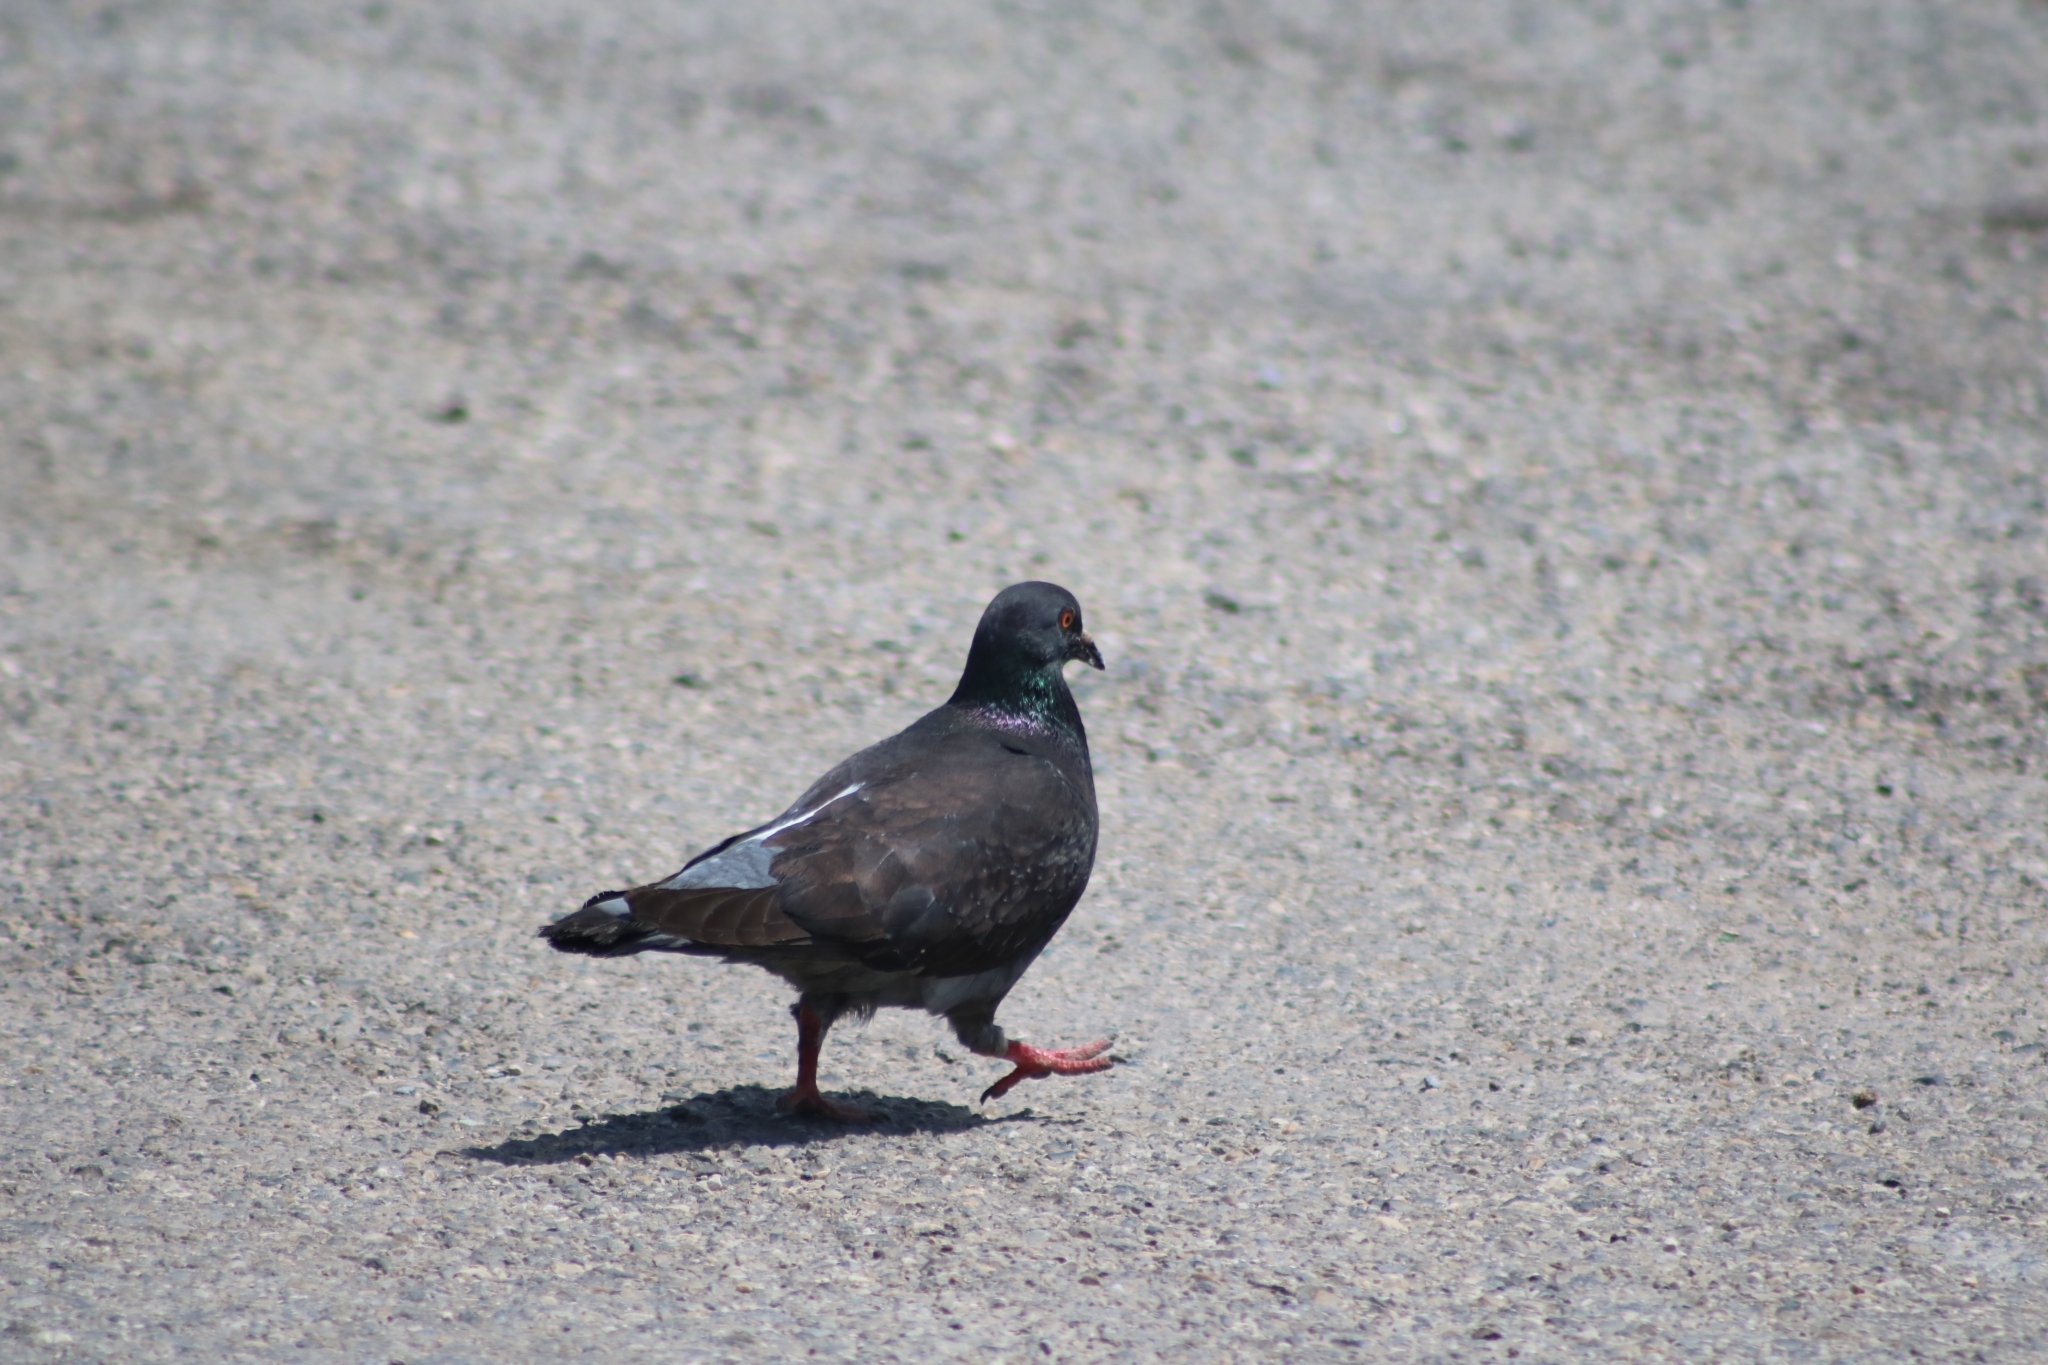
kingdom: Animalia
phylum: Chordata
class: Aves
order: Columbiformes
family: Columbidae
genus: Columba
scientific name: Columba livia
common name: Rock pigeon
